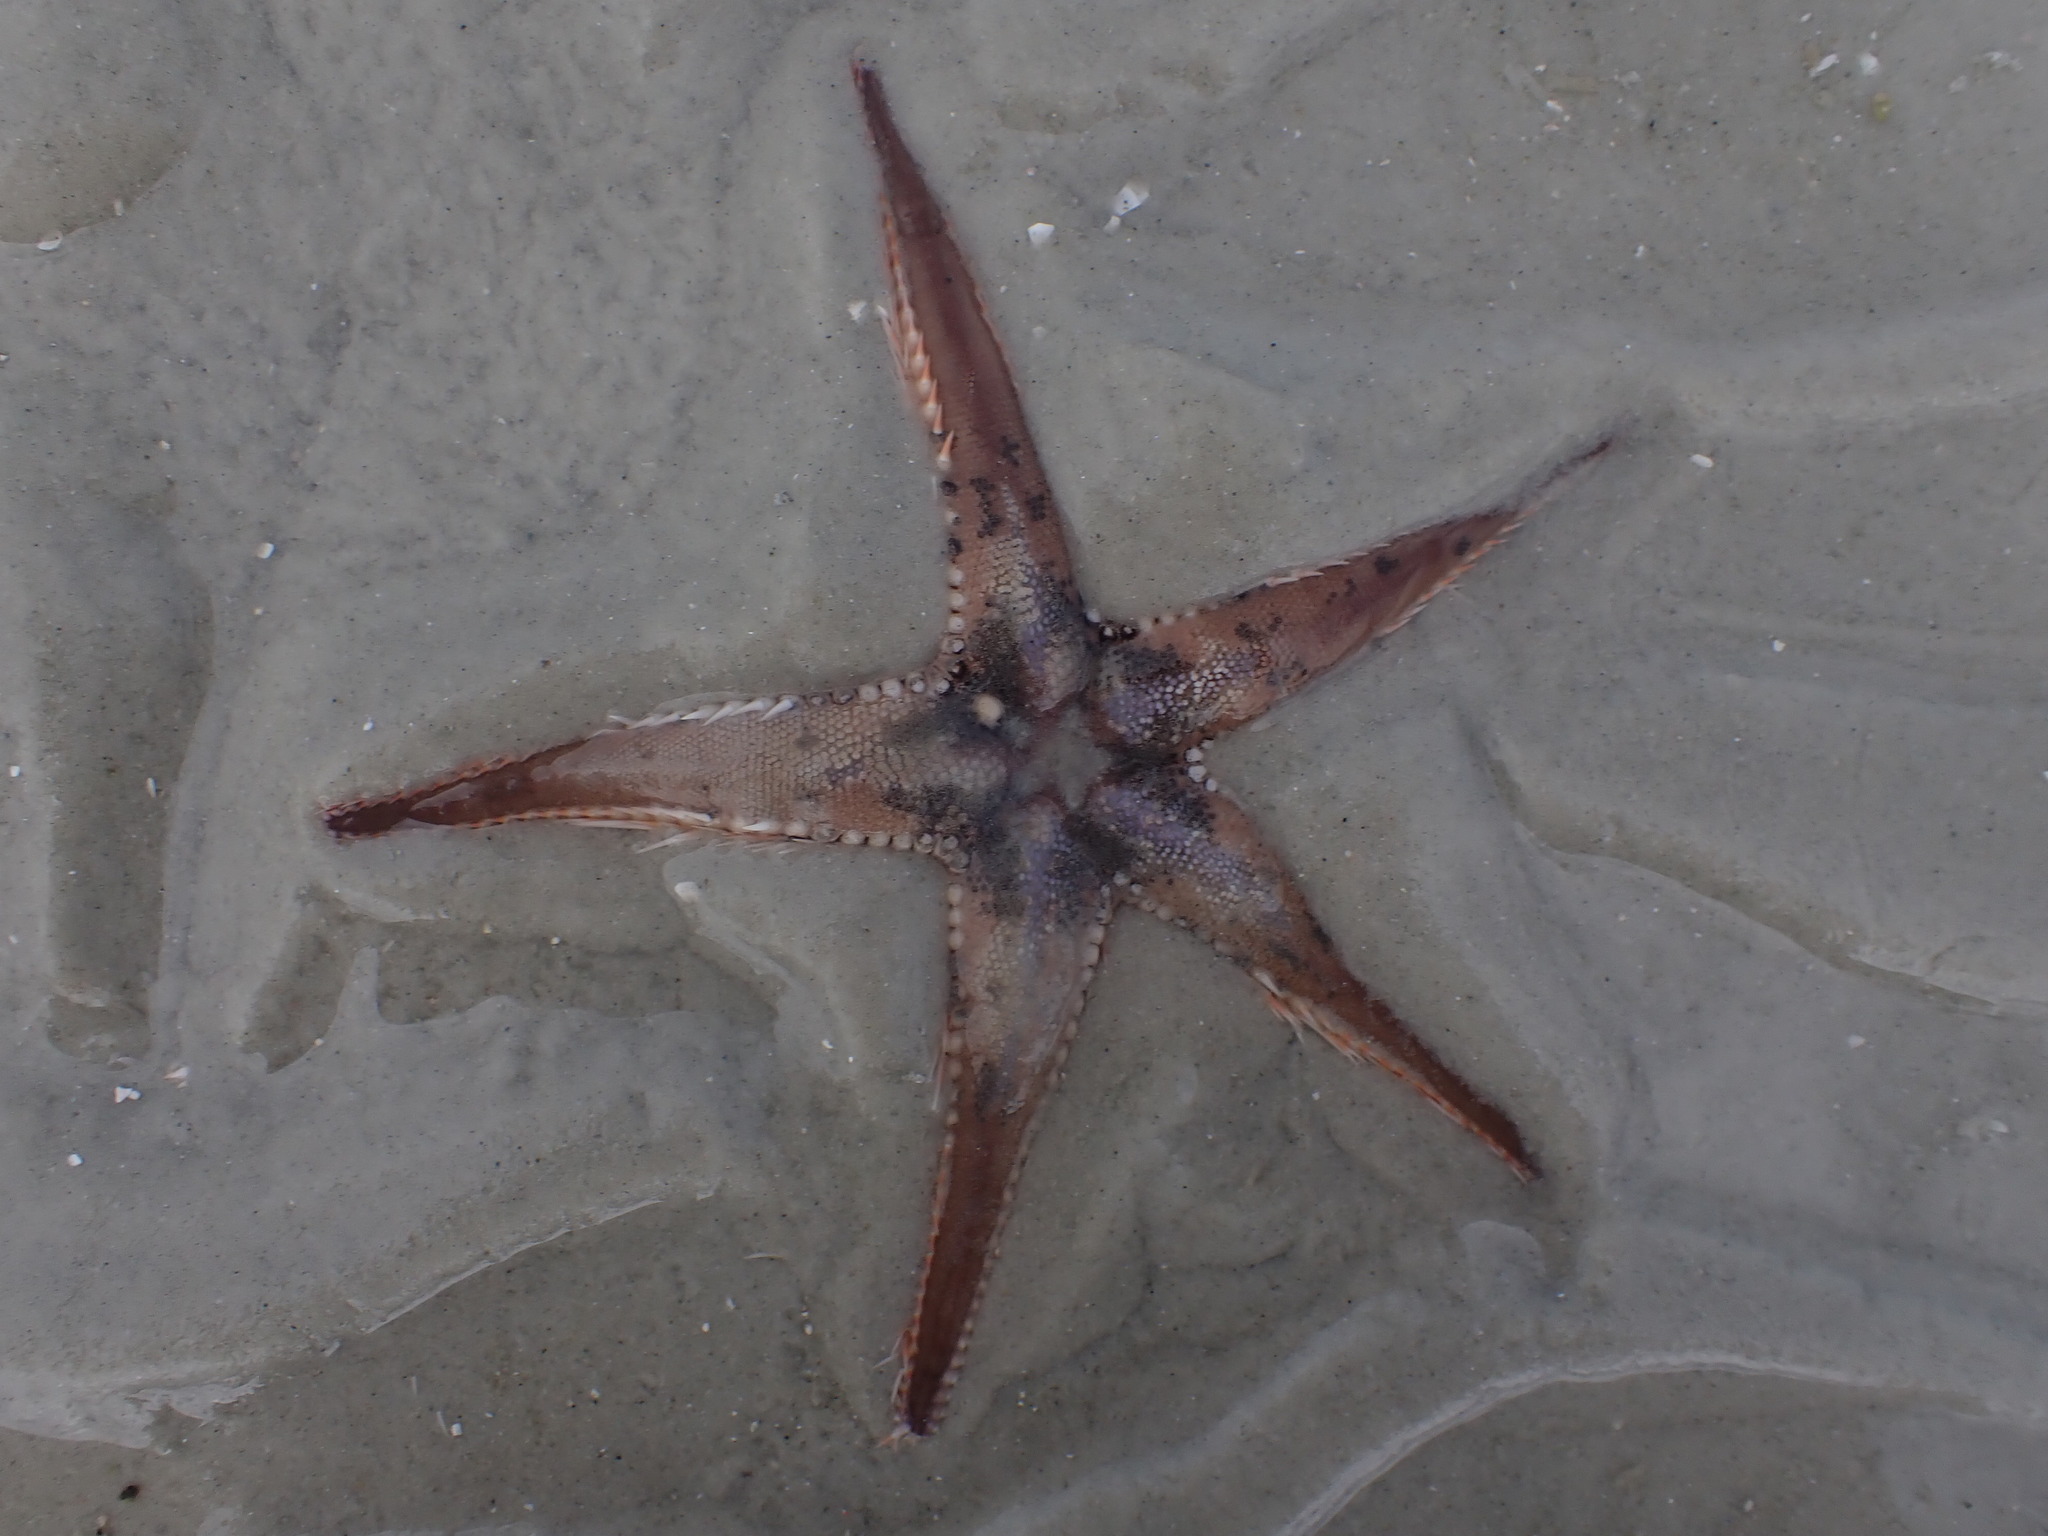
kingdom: Animalia
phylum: Echinodermata
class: Asteroidea
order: Paxillosida
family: Astropectinidae
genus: Astropecten
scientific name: Astropecten polyacanthus
